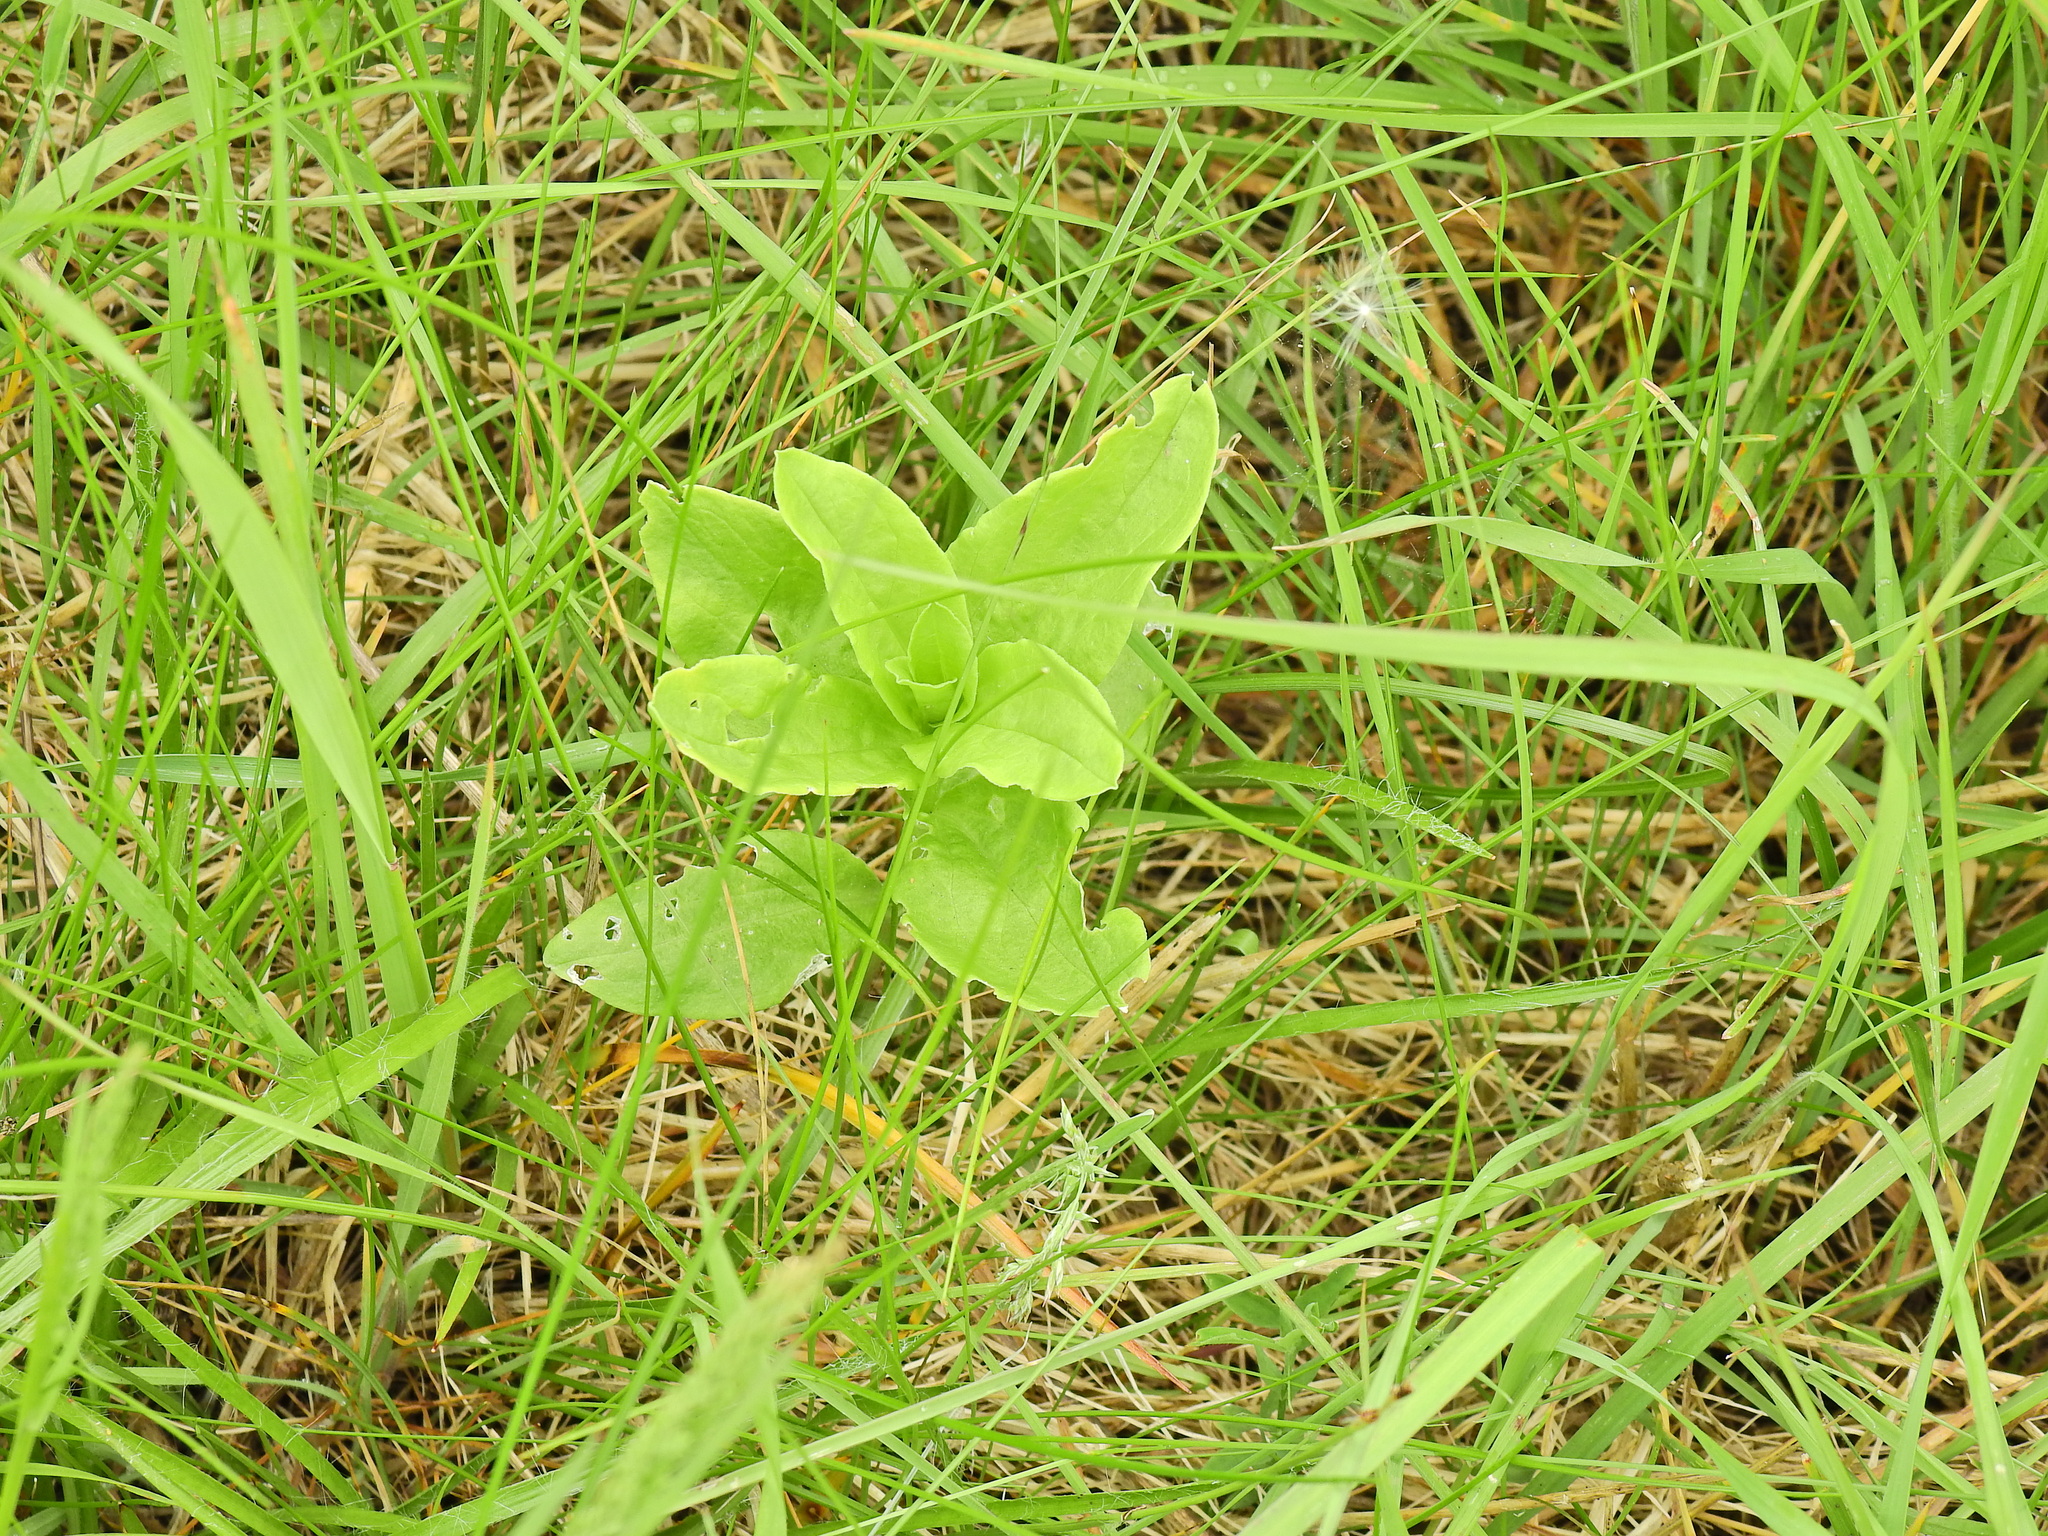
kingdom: Plantae
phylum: Tracheophyta
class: Magnoliopsida
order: Caryophyllales
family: Caryophyllaceae
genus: Saponaria
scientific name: Saponaria officinalis
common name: Soapwort
